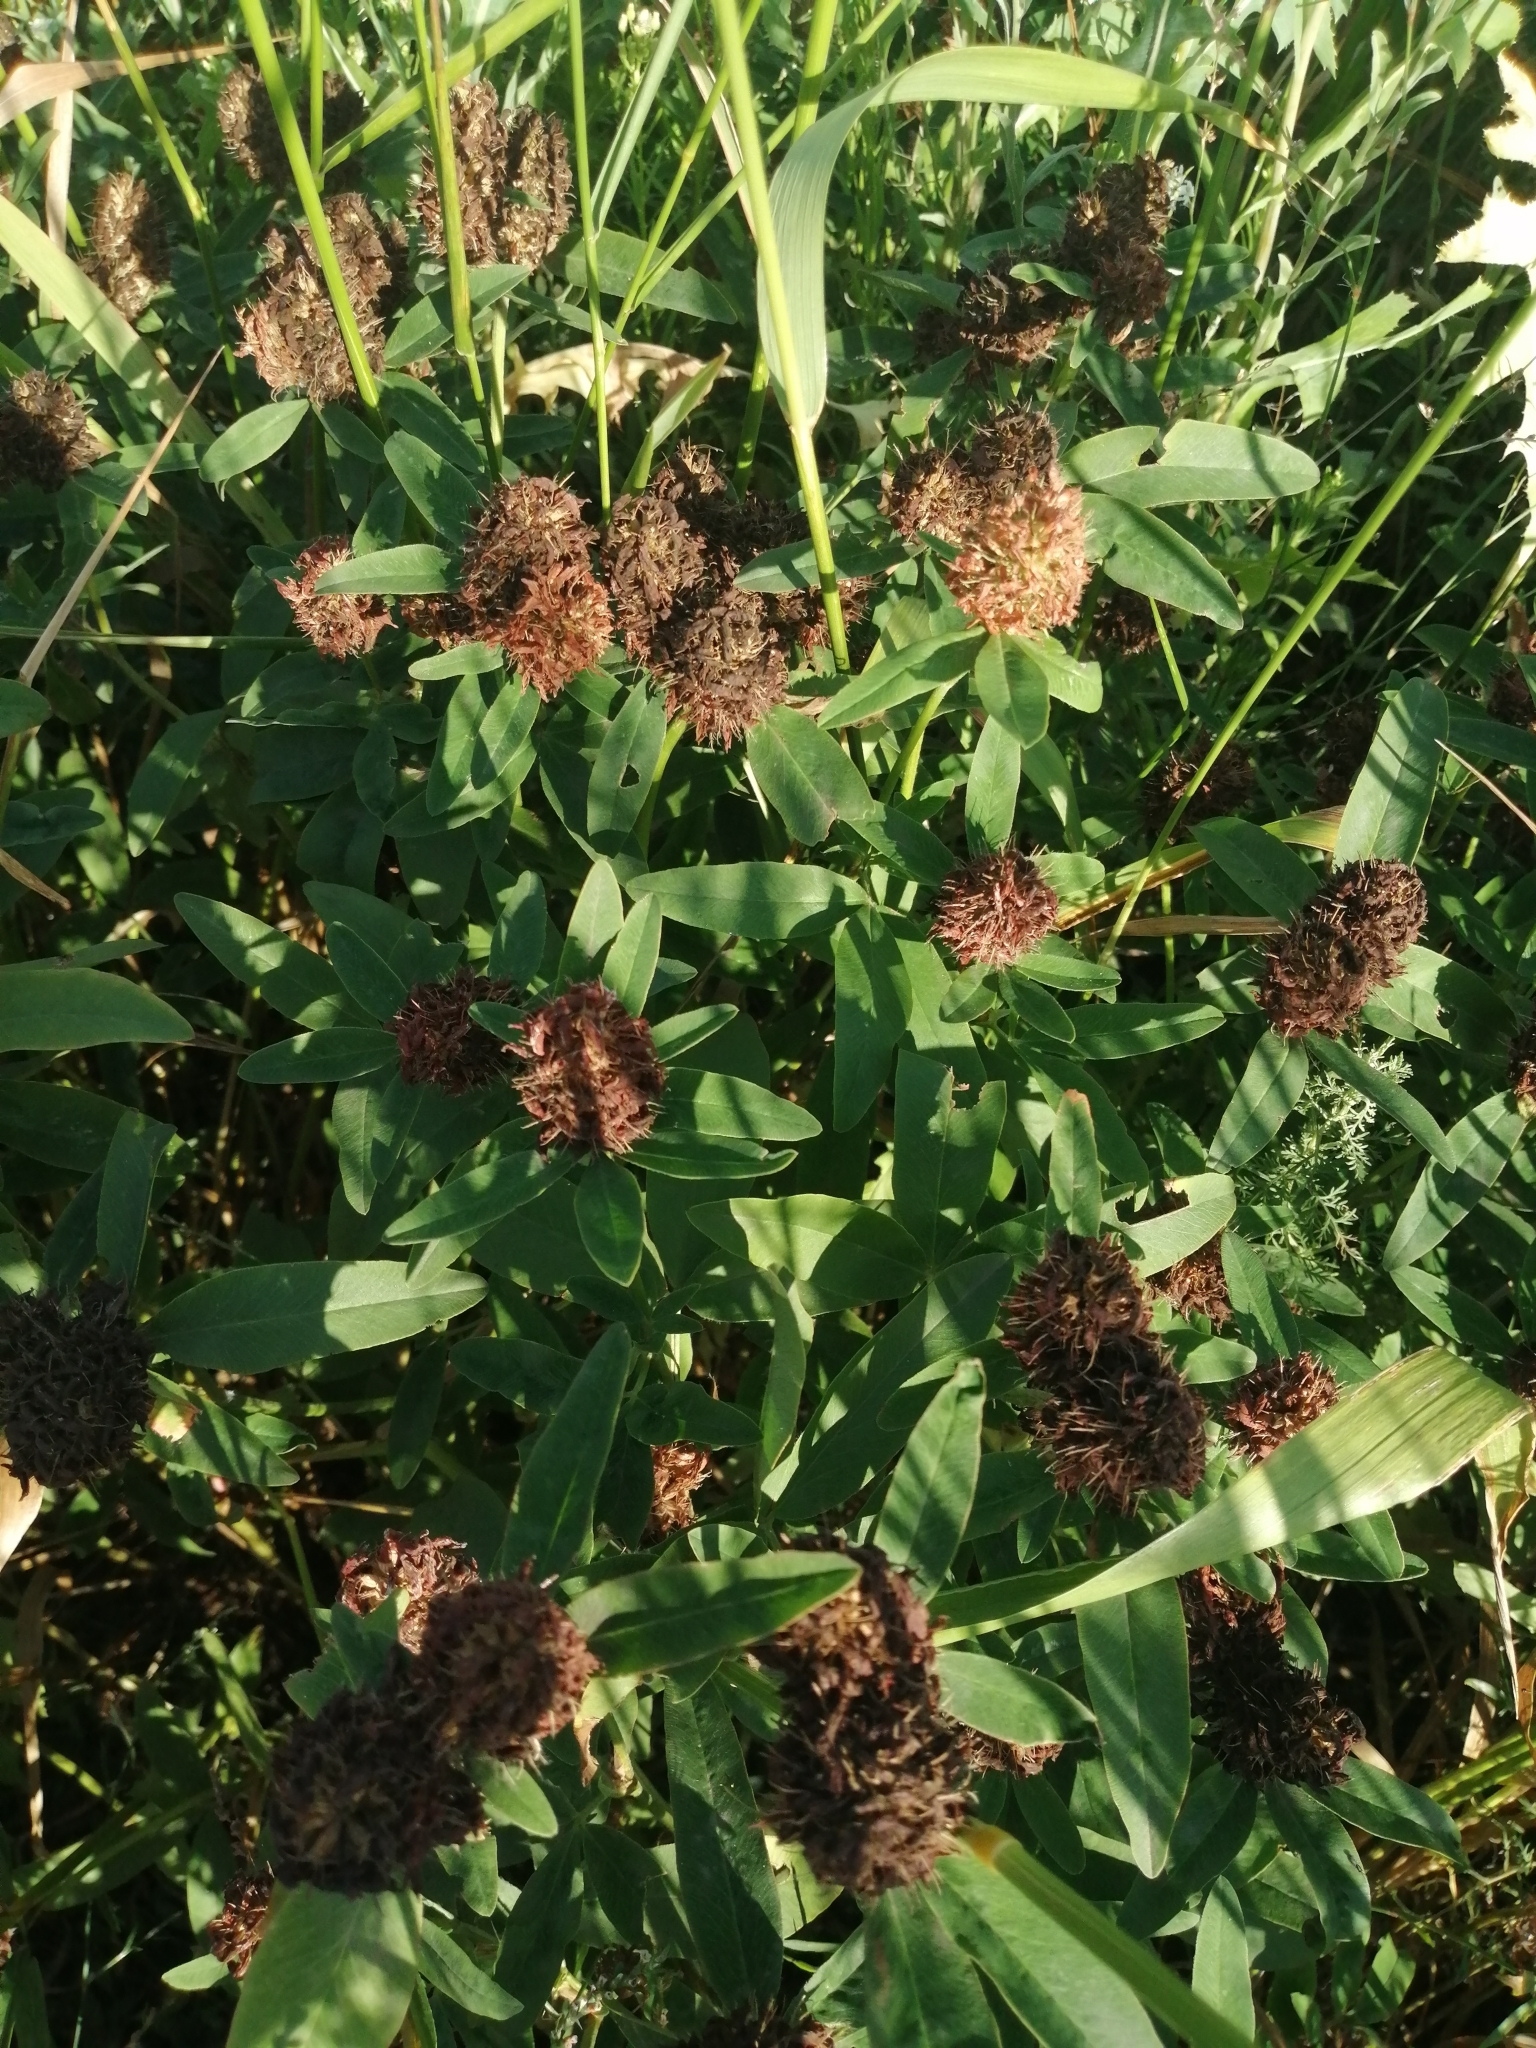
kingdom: Plantae
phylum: Tracheophyta
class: Magnoliopsida
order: Fabales
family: Fabaceae
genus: Trifolium
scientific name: Trifolium medium
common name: Zigzag clover
